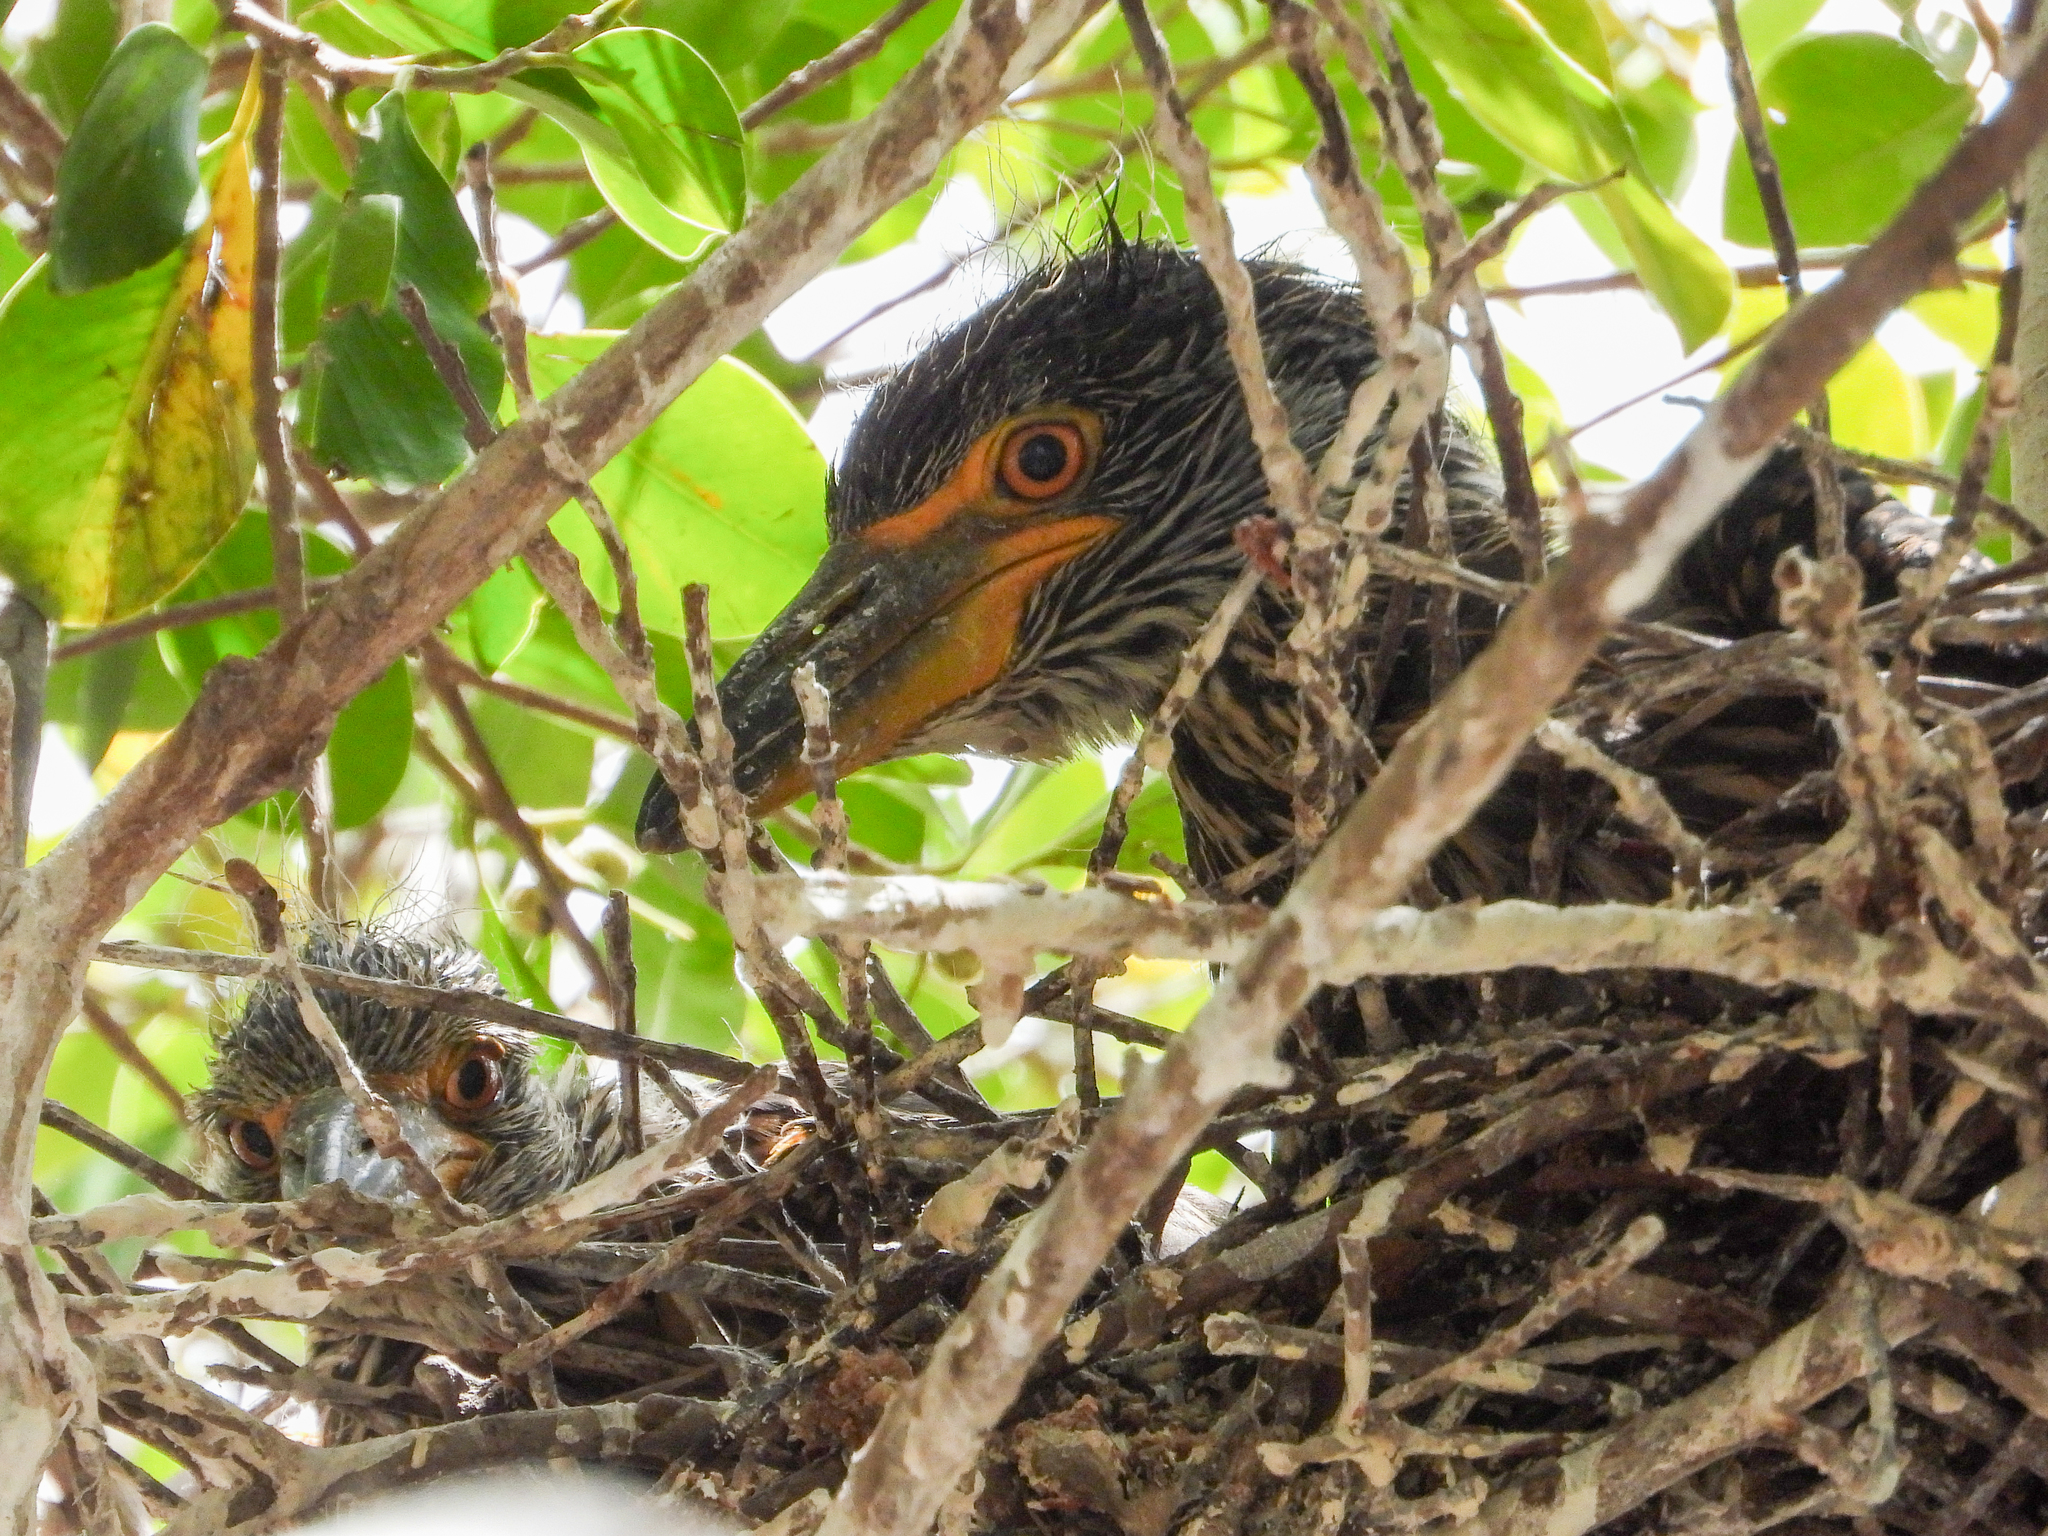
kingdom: Animalia
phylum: Chordata
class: Aves
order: Pelecaniformes
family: Ardeidae
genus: Nyctanassa
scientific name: Nyctanassa violacea
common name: Yellow-crowned night heron
